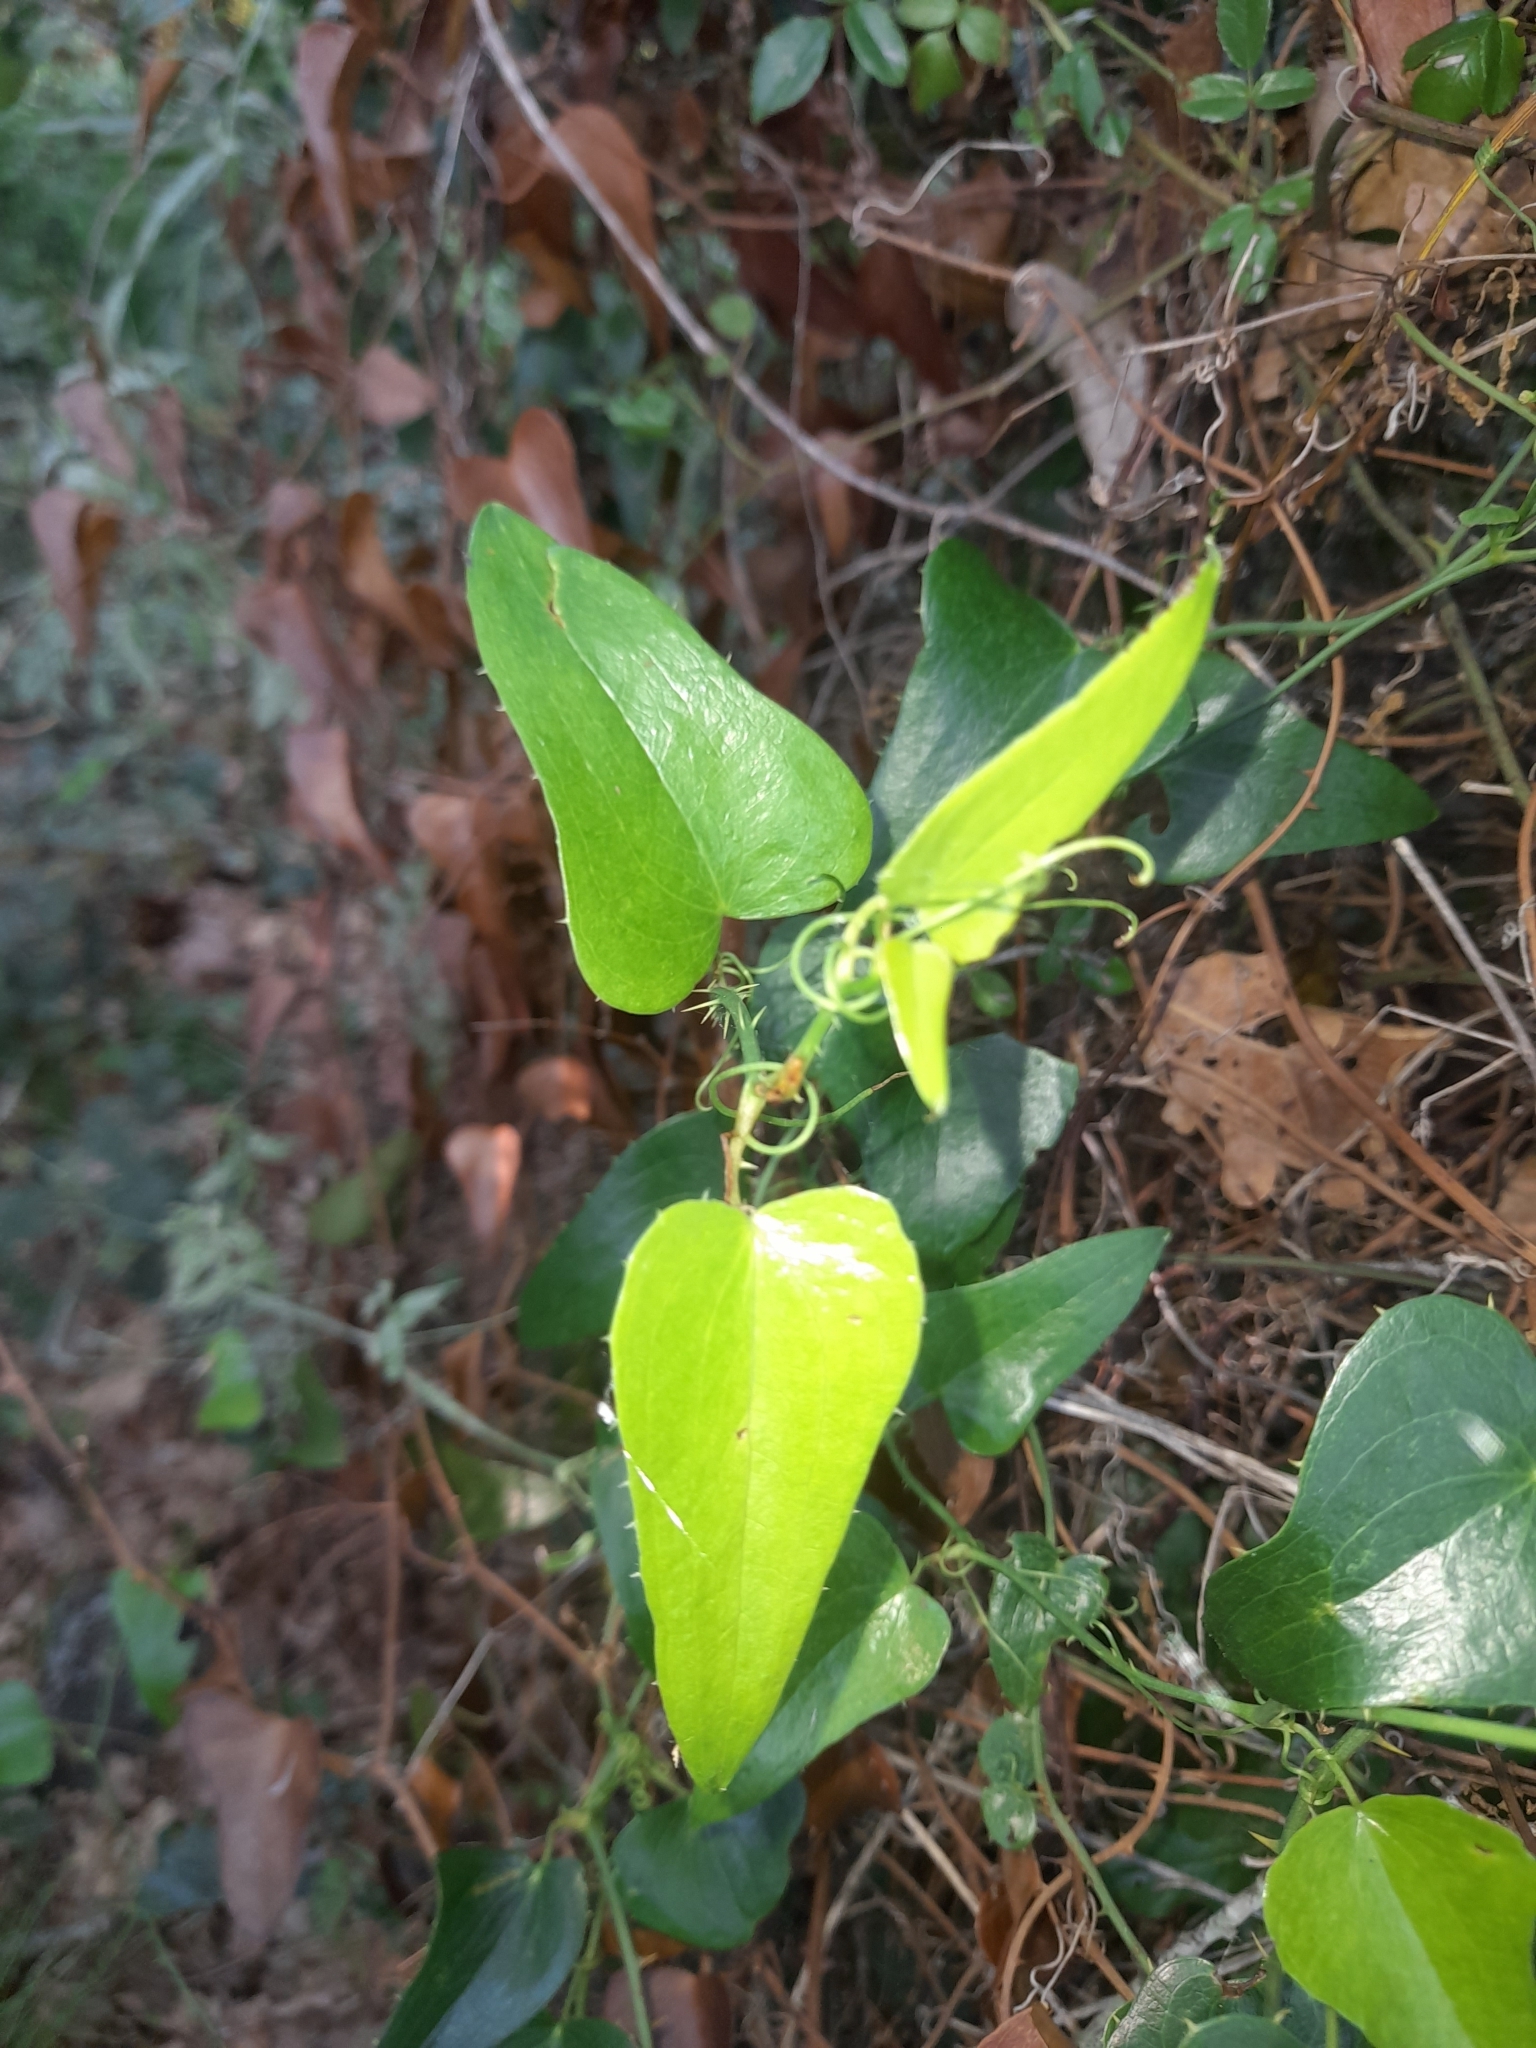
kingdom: Plantae
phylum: Tracheophyta
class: Liliopsida
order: Liliales
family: Smilacaceae
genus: Smilax
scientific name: Smilax aspera
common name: Common smilax
